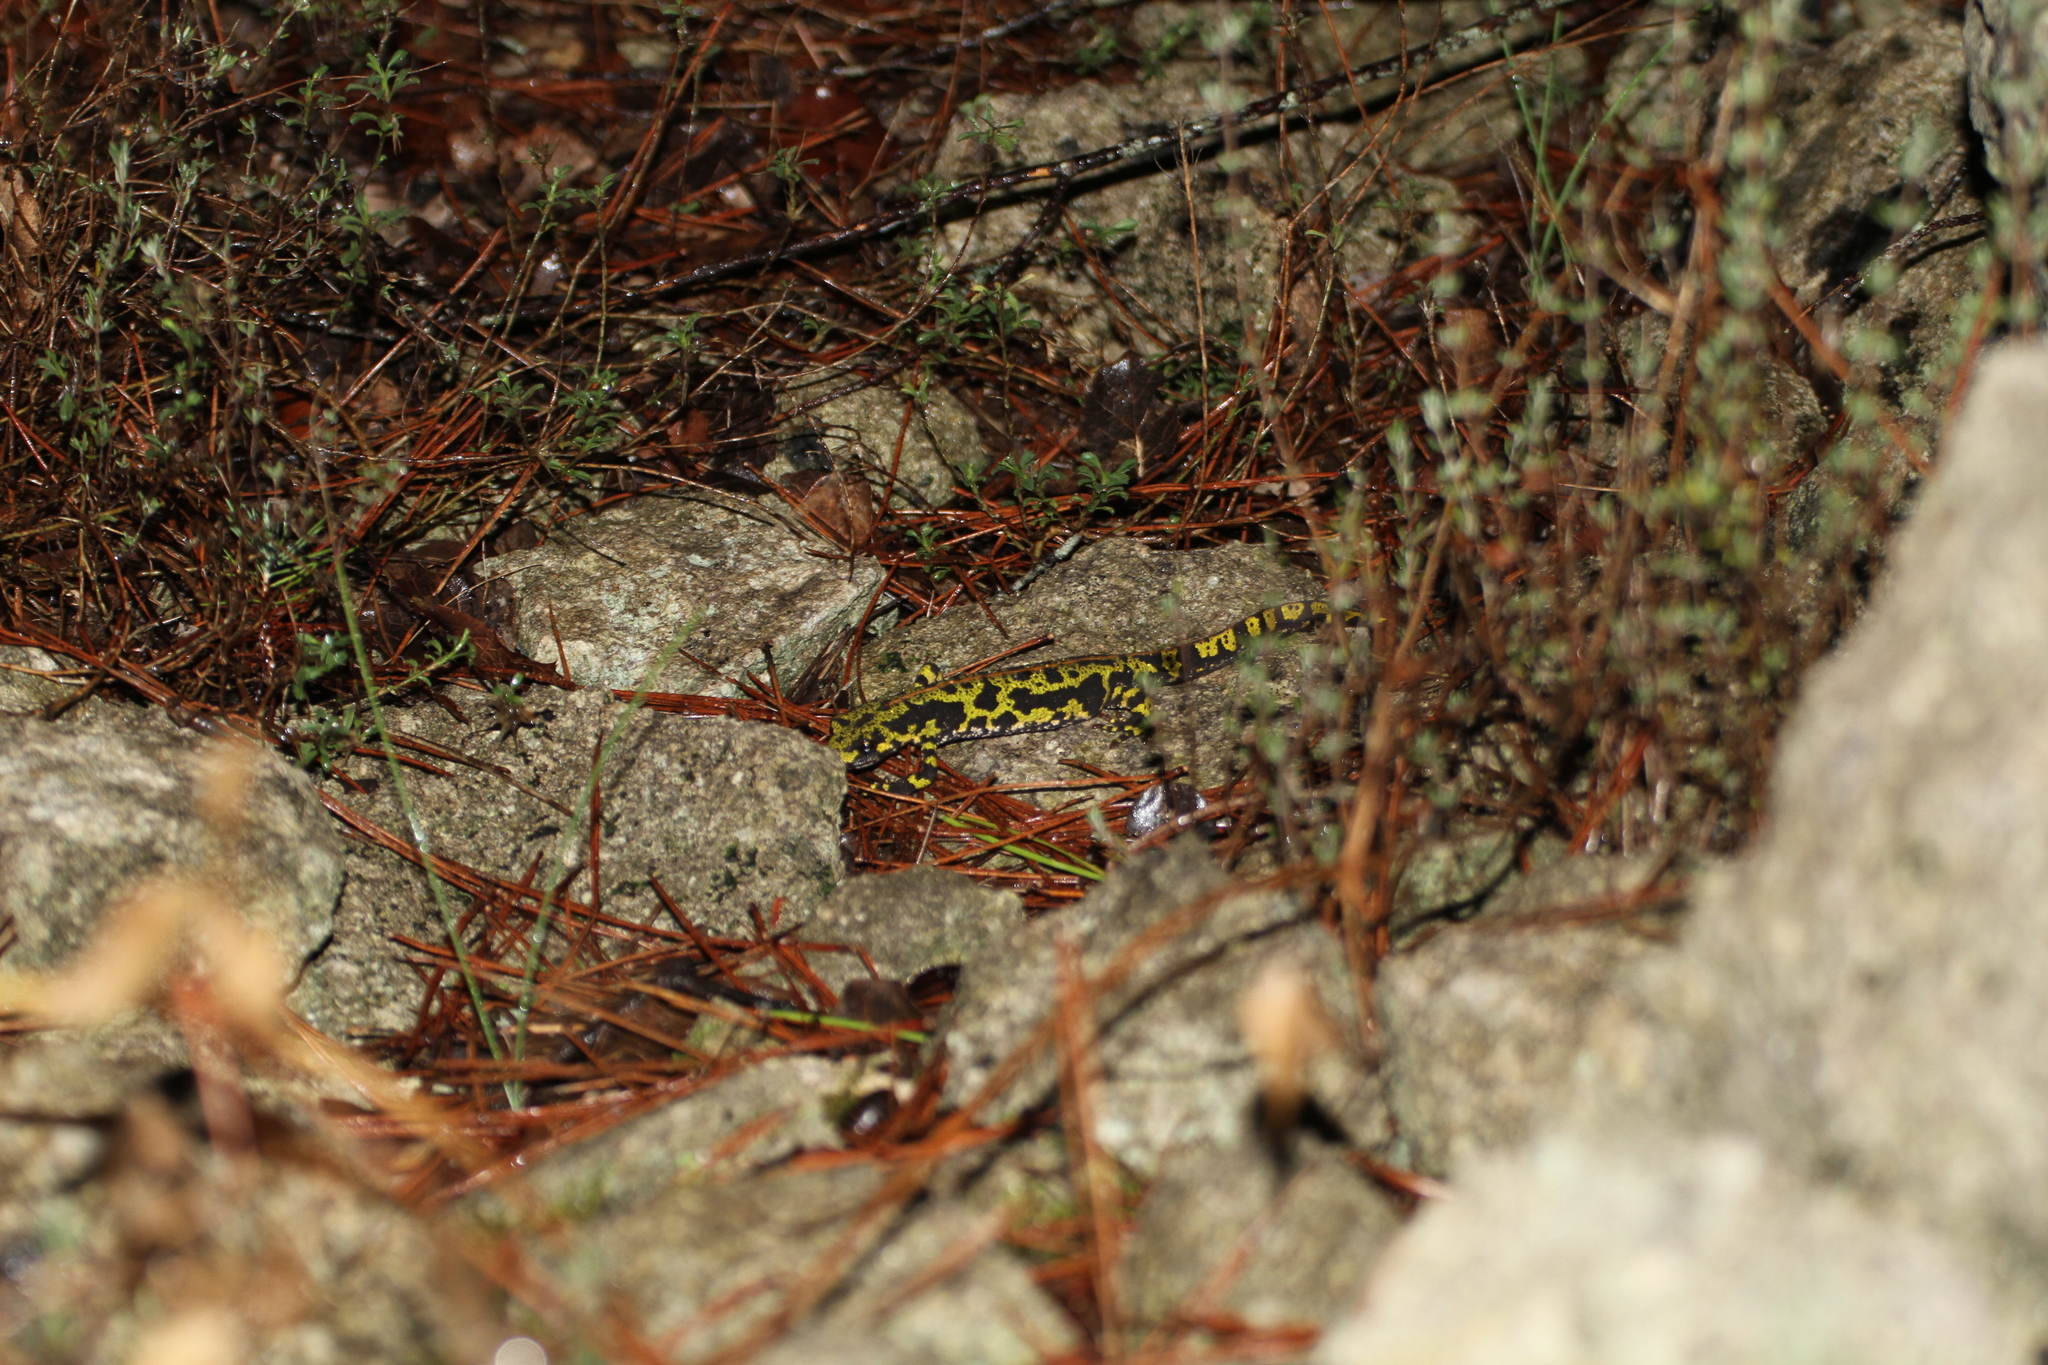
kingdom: Animalia
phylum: Chordata
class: Amphibia
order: Caudata
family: Salamandridae
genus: Triturus
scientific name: Triturus marmoratus
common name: Marbled newt
